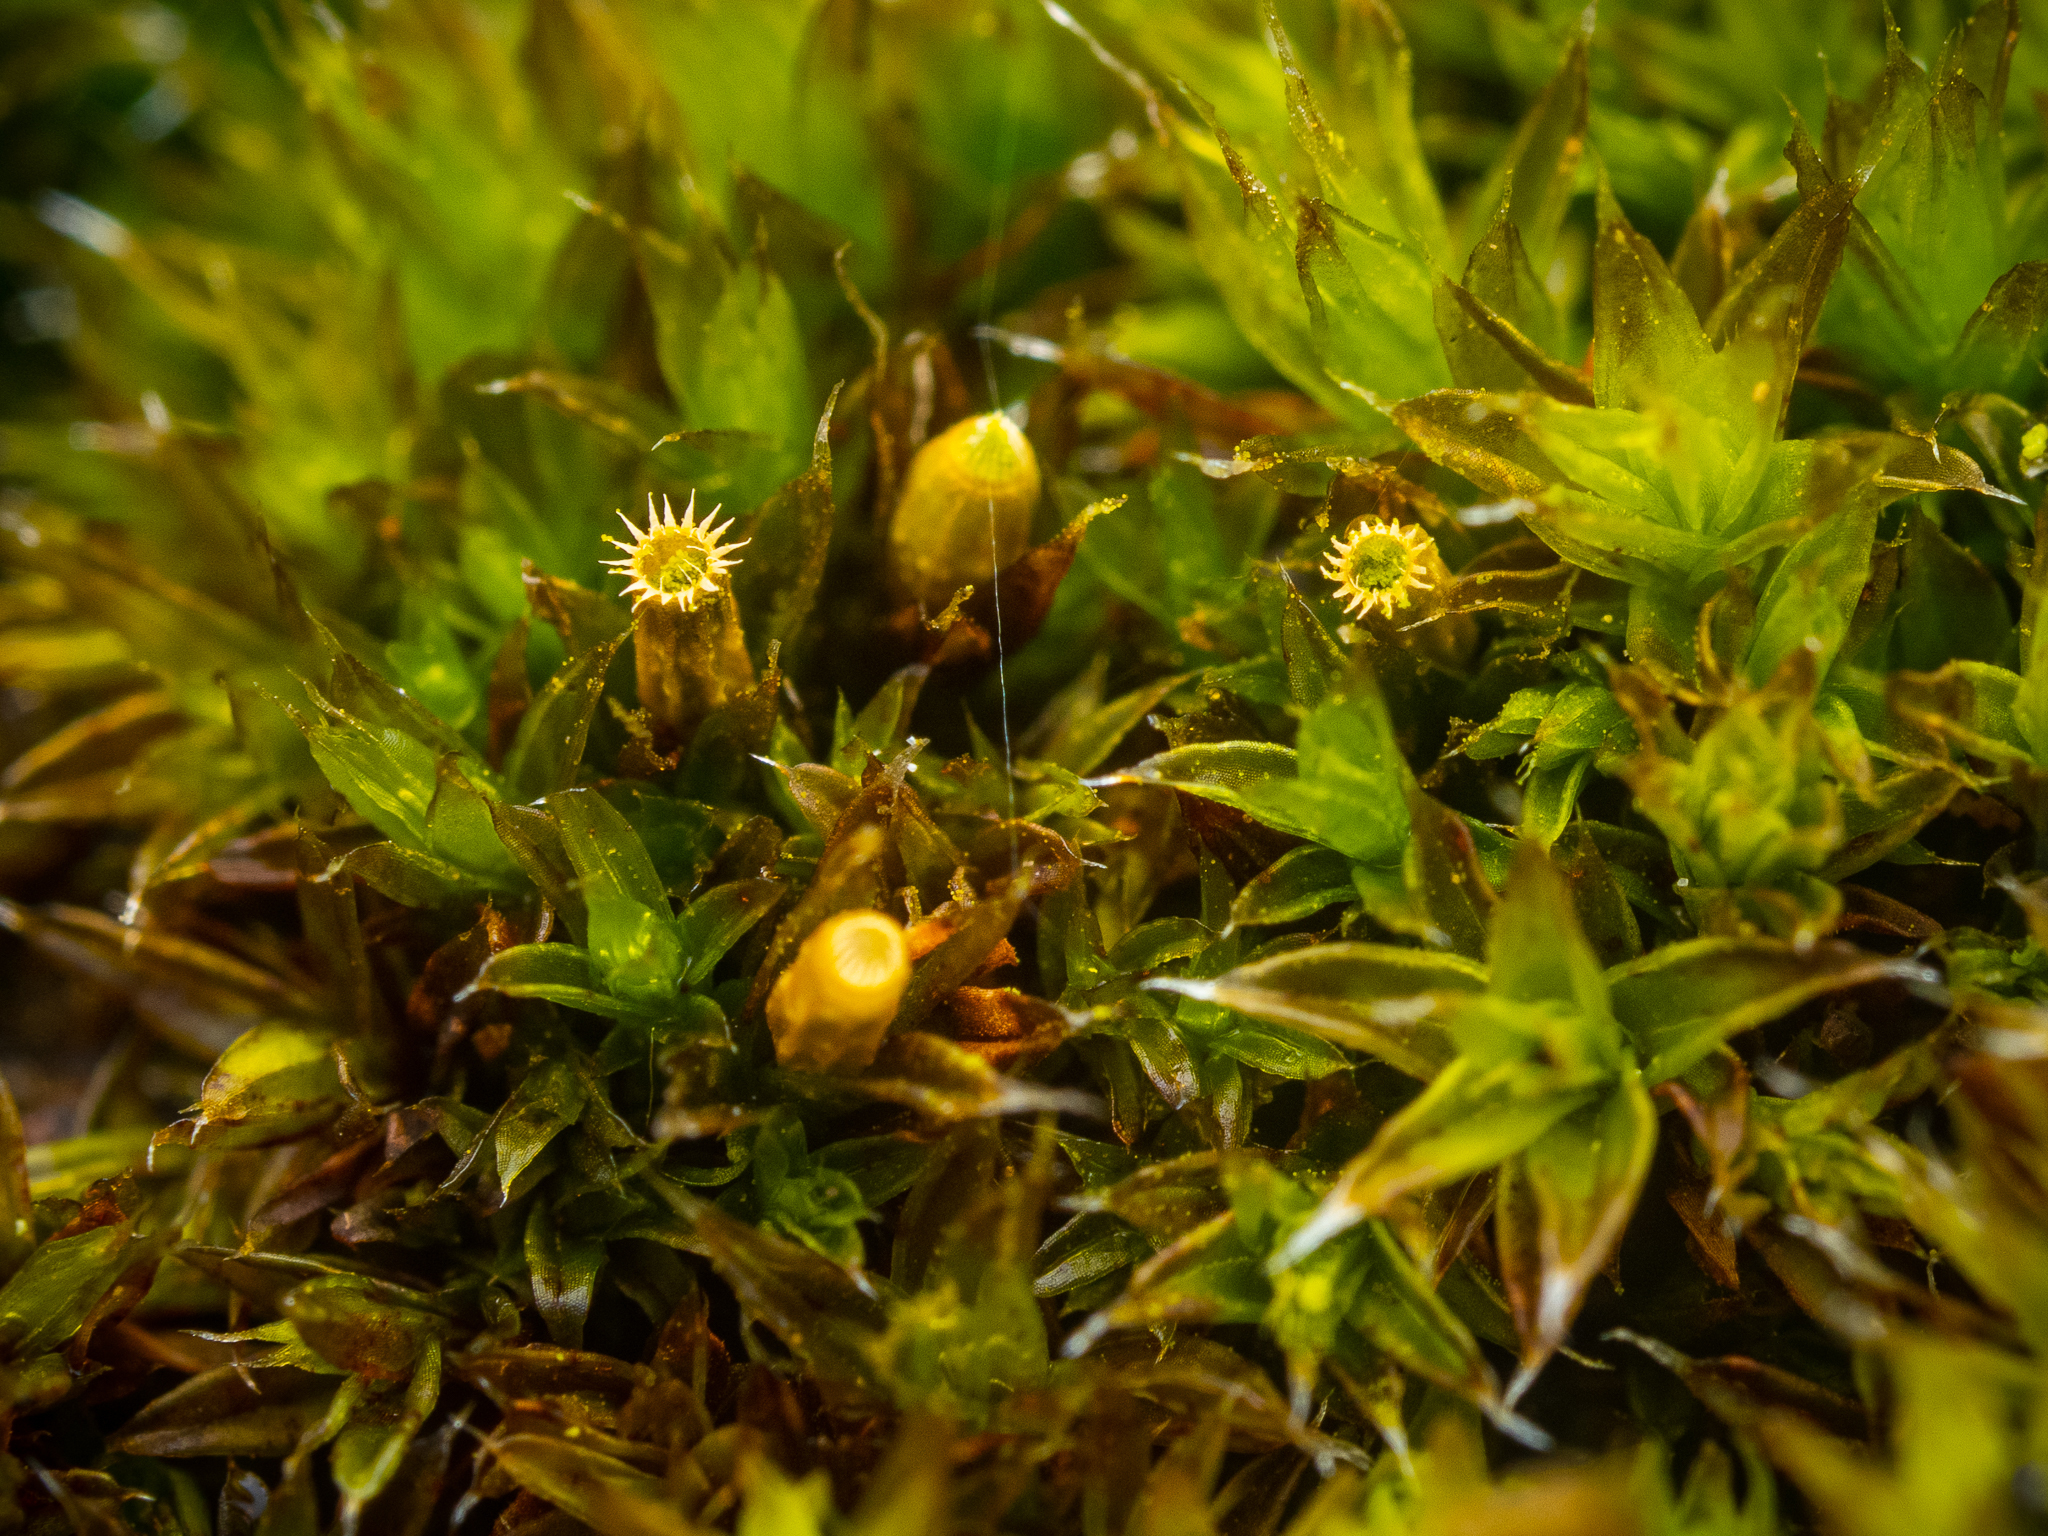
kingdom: Plantae
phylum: Bryophyta
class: Bryopsida
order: Orthotrichales
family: Orthotrichaceae
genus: Orthotrichum
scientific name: Orthotrichum diaphanum
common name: White-tipped bristle-moss
